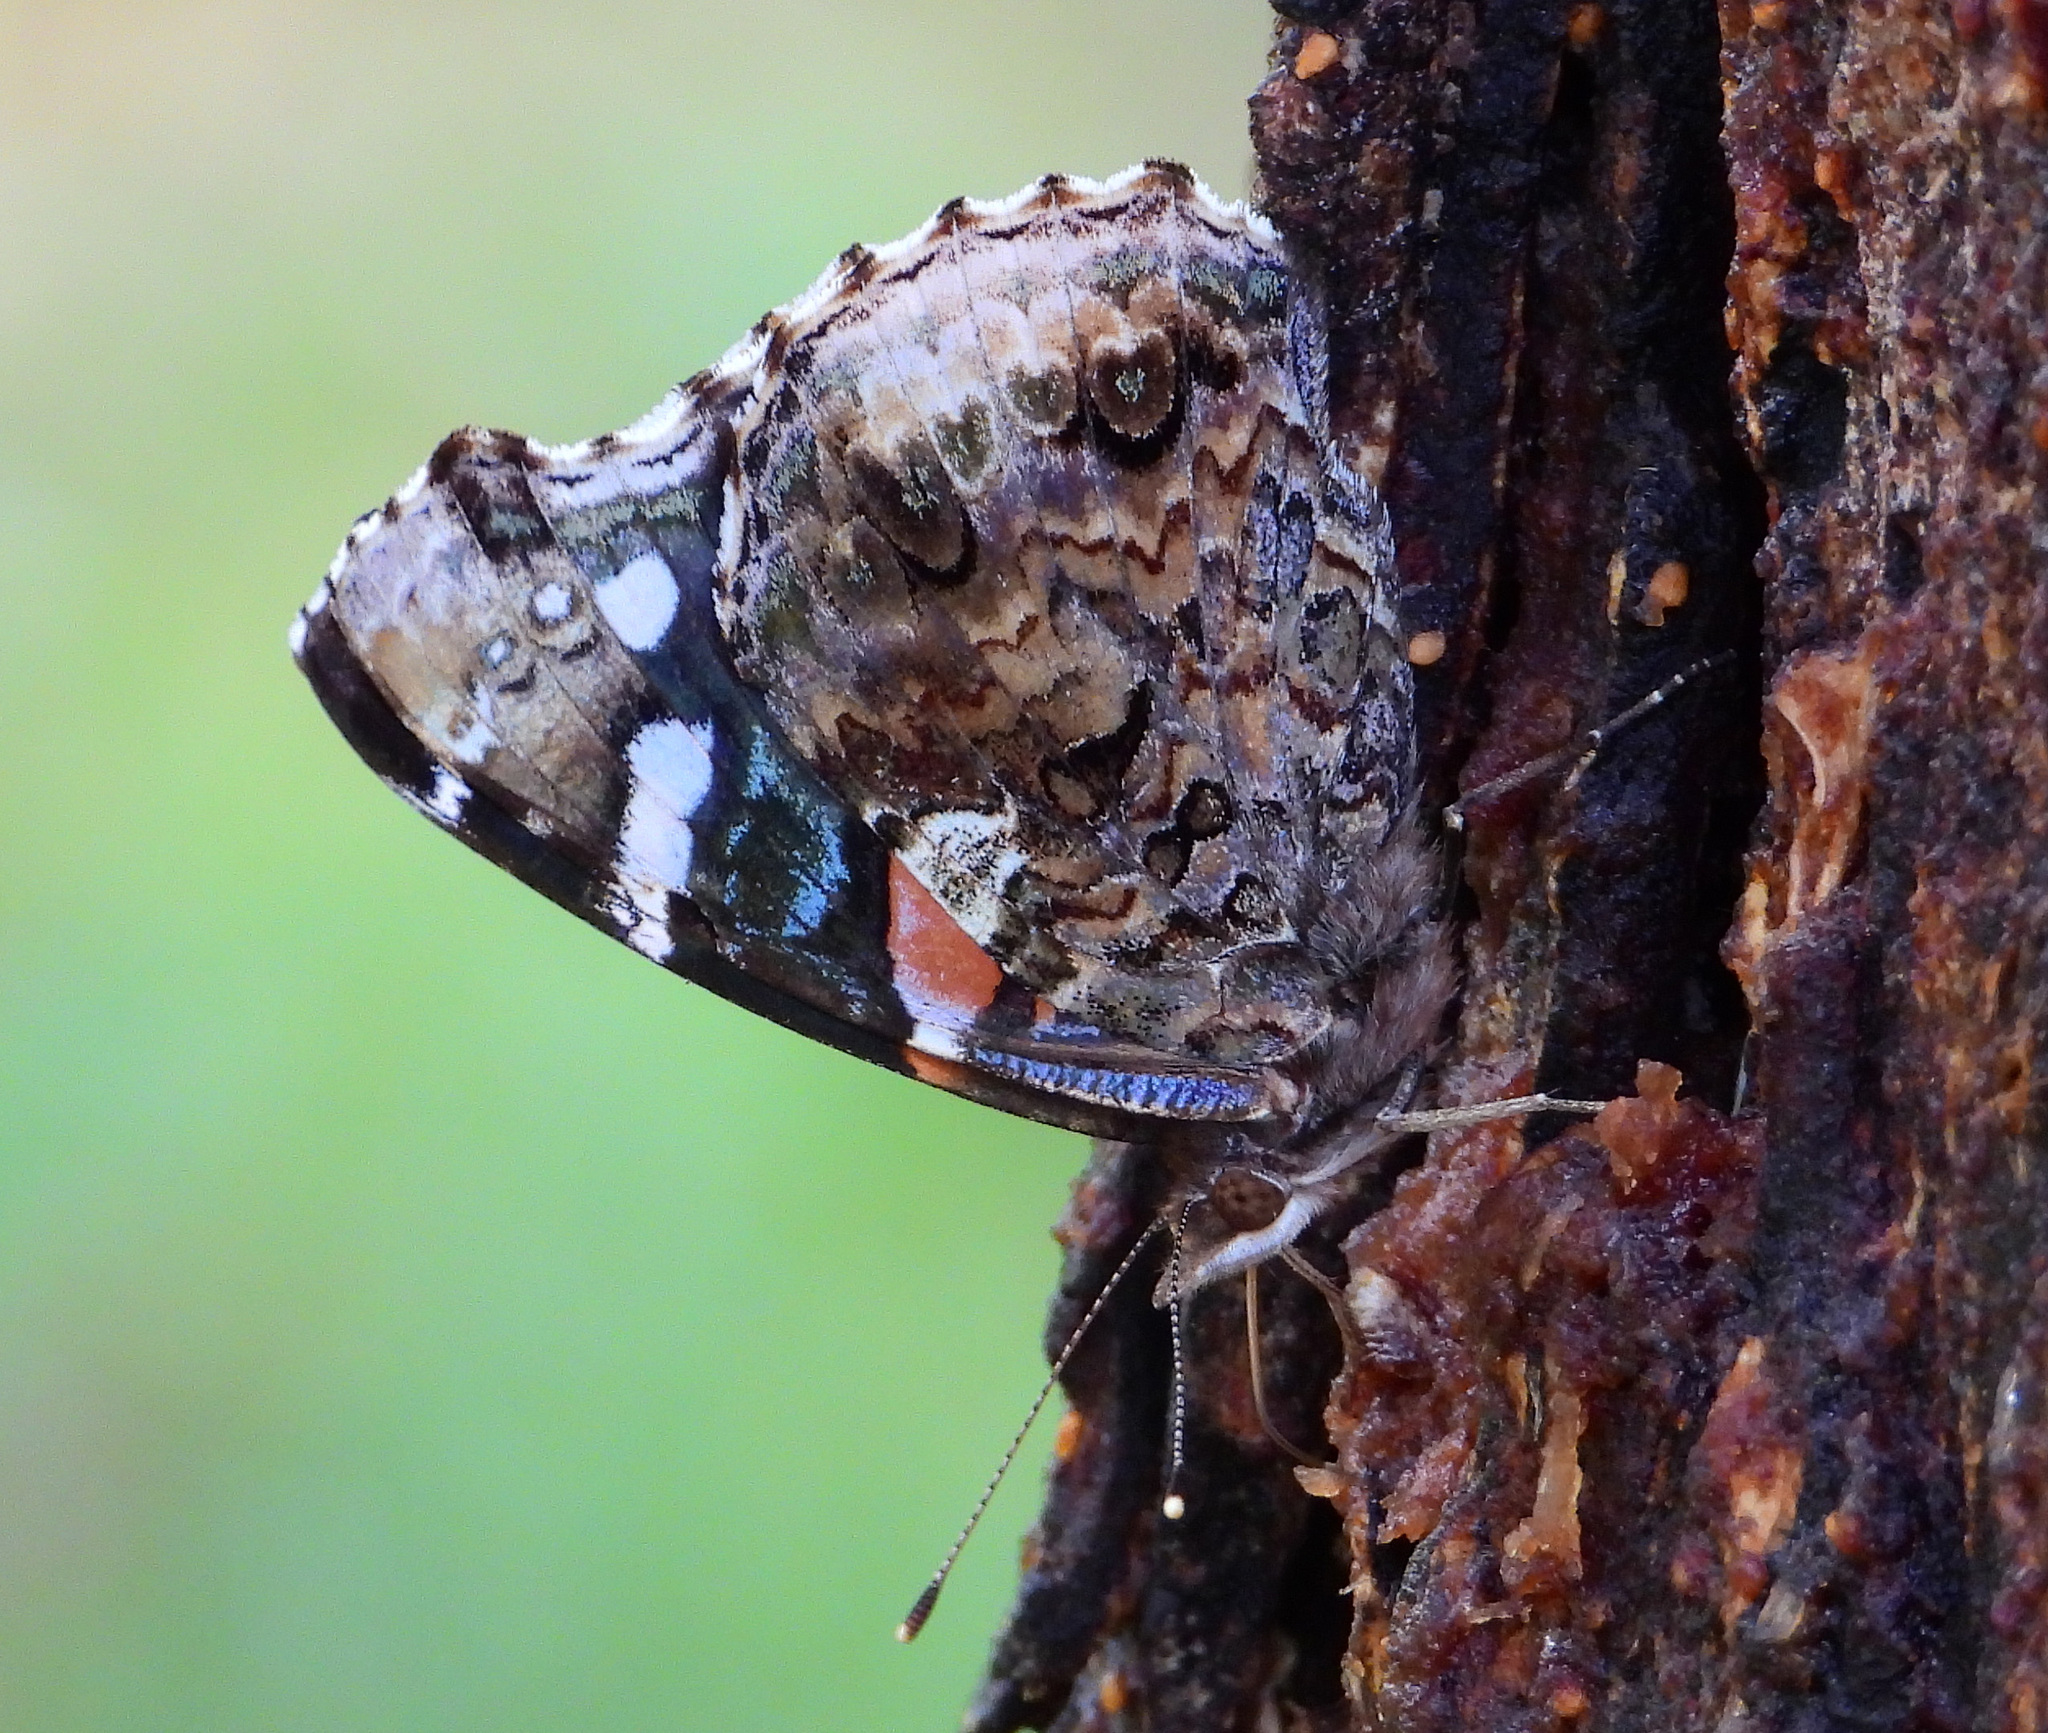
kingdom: Animalia
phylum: Arthropoda
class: Insecta
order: Lepidoptera
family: Nymphalidae
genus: Vanessa
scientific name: Vanessa atalanta
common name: Red admiral
